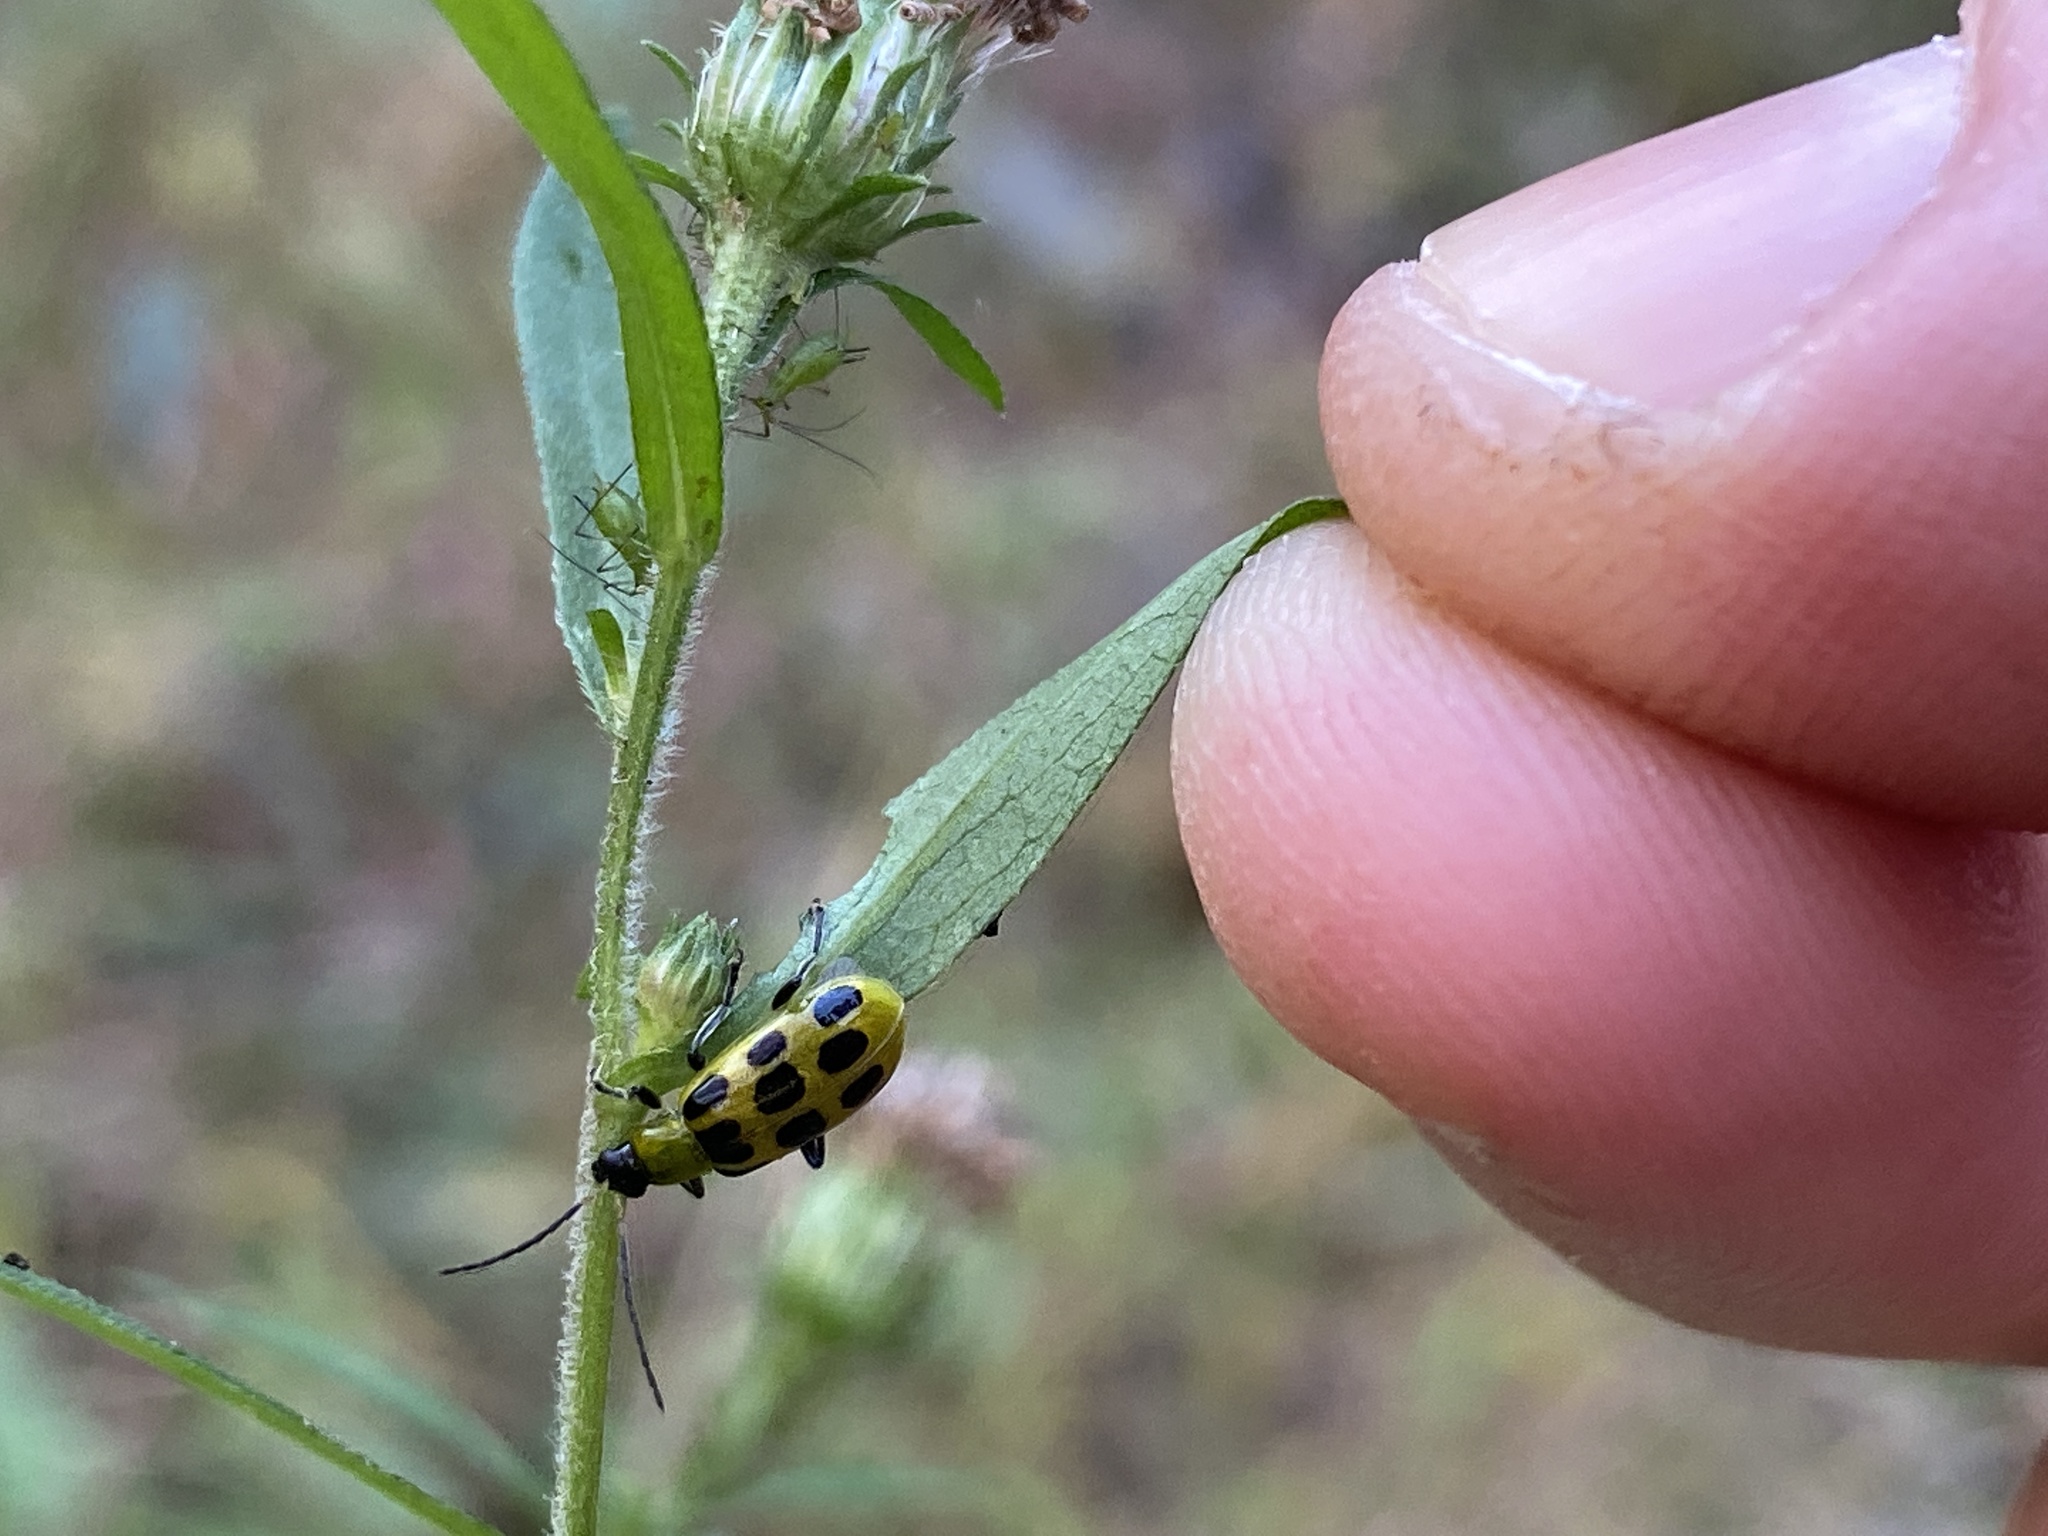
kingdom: Animalia
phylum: Arthropoda
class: Insecta
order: Coleoptera
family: Chrysomelidae
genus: Diabrotica
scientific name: Diabrotica undecimpunctata
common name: Spotted cucumber beetle
